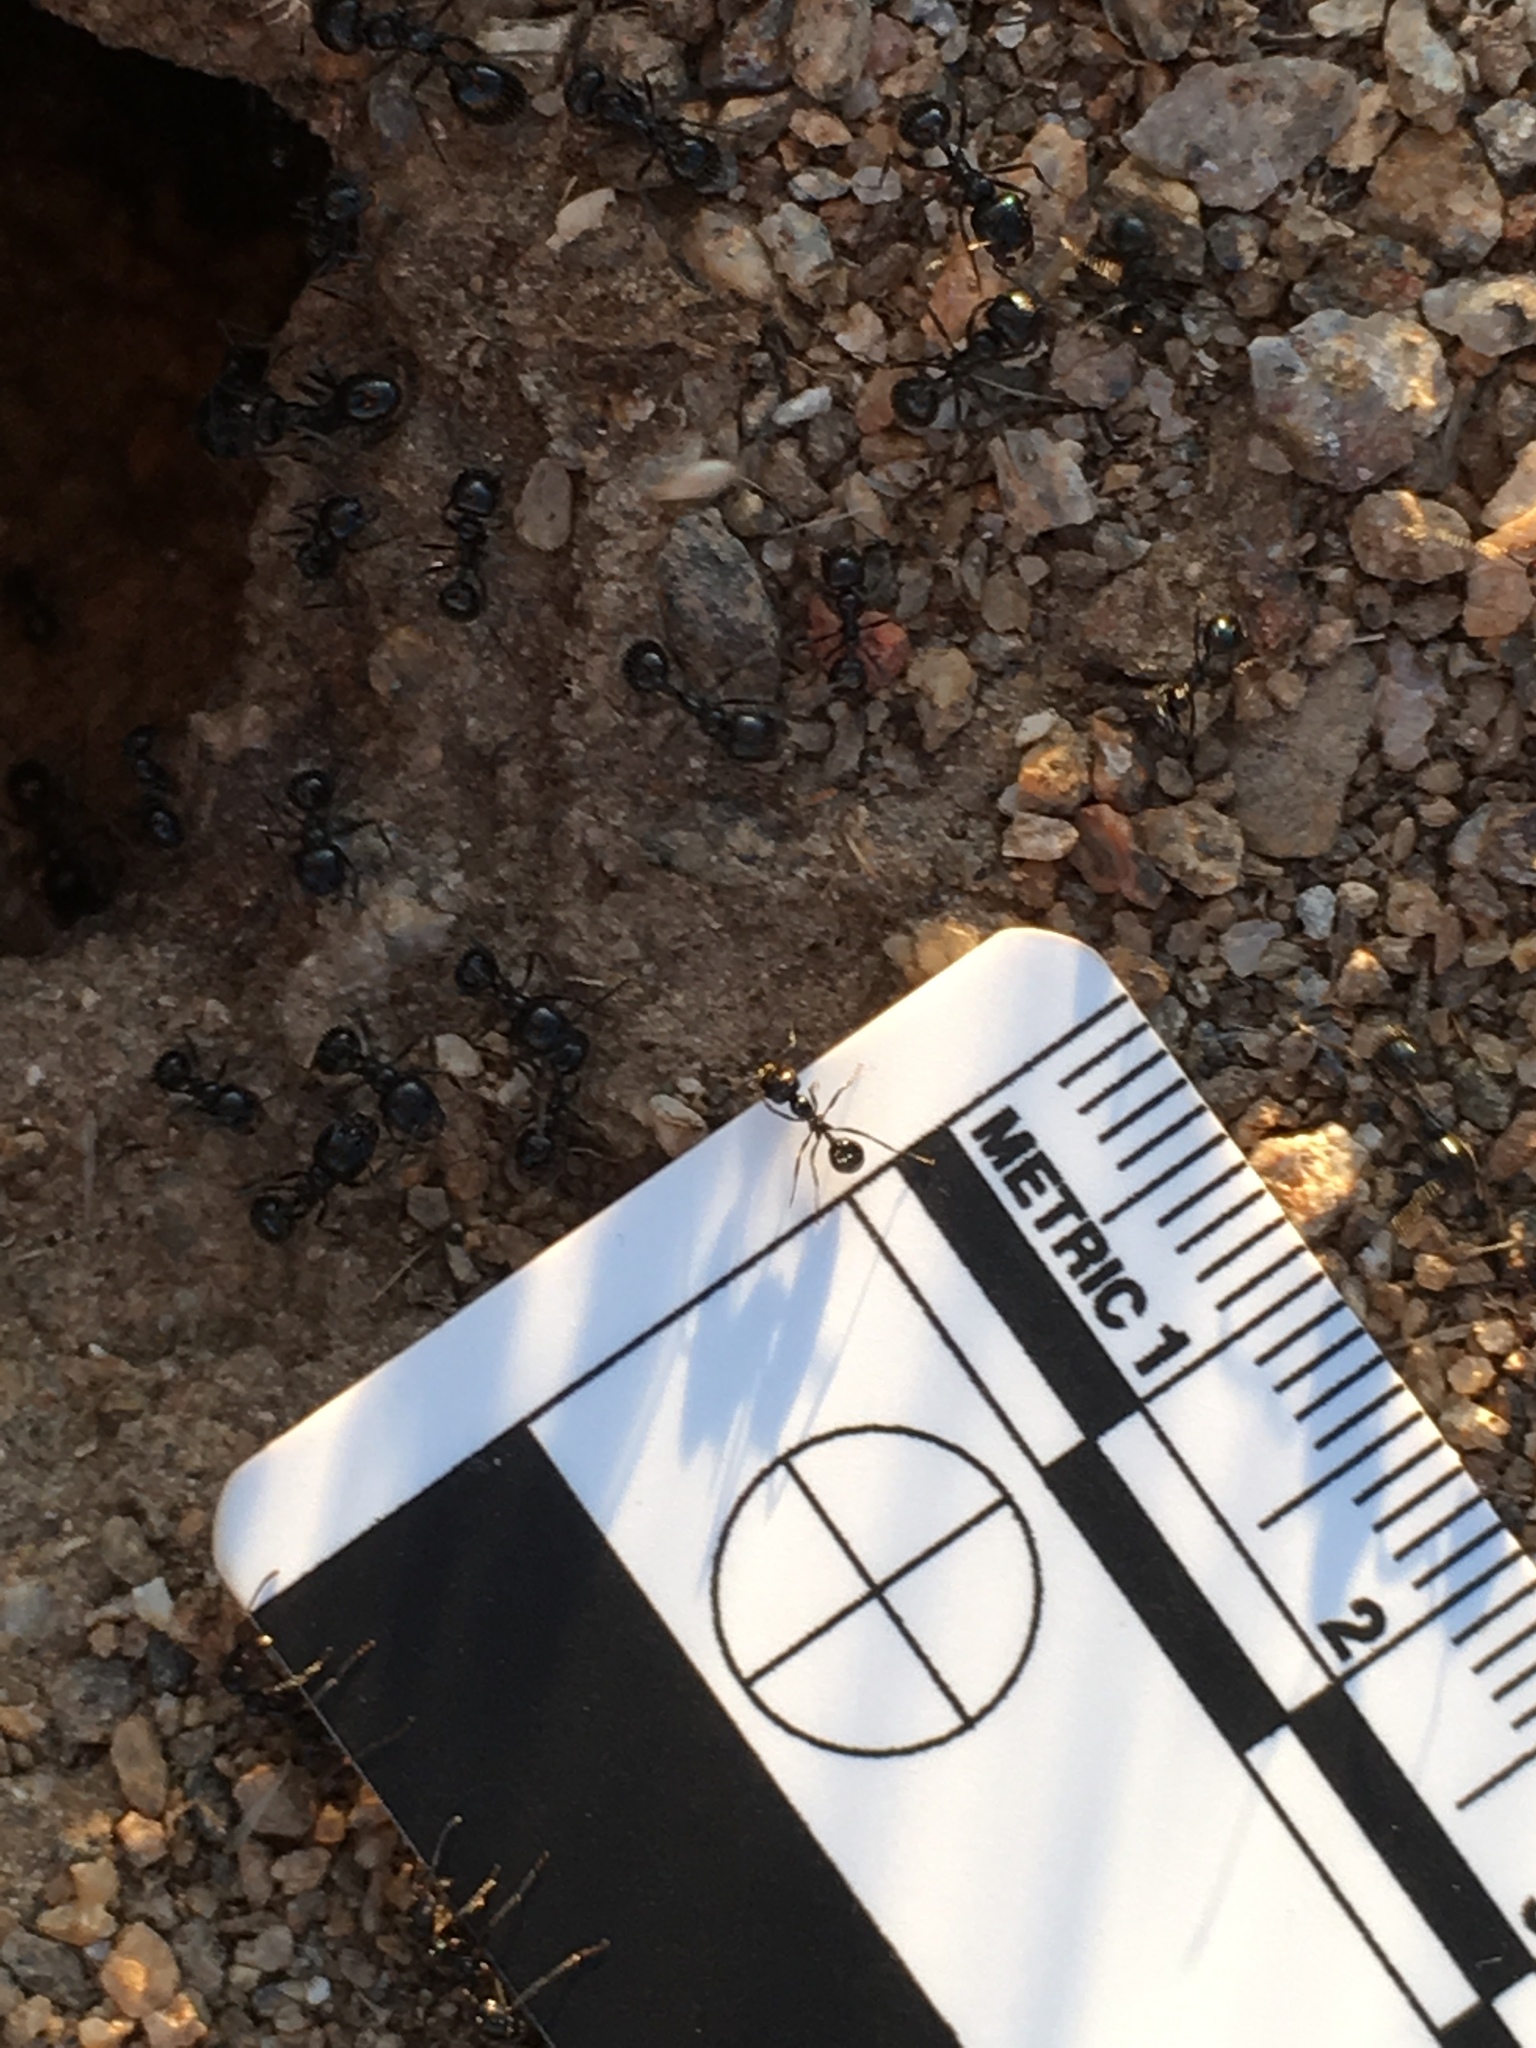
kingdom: Animalia
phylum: Arthropoda
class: Insecta
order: Hymenoptera
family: Formicidae
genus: Messor
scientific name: Messor pergandei
